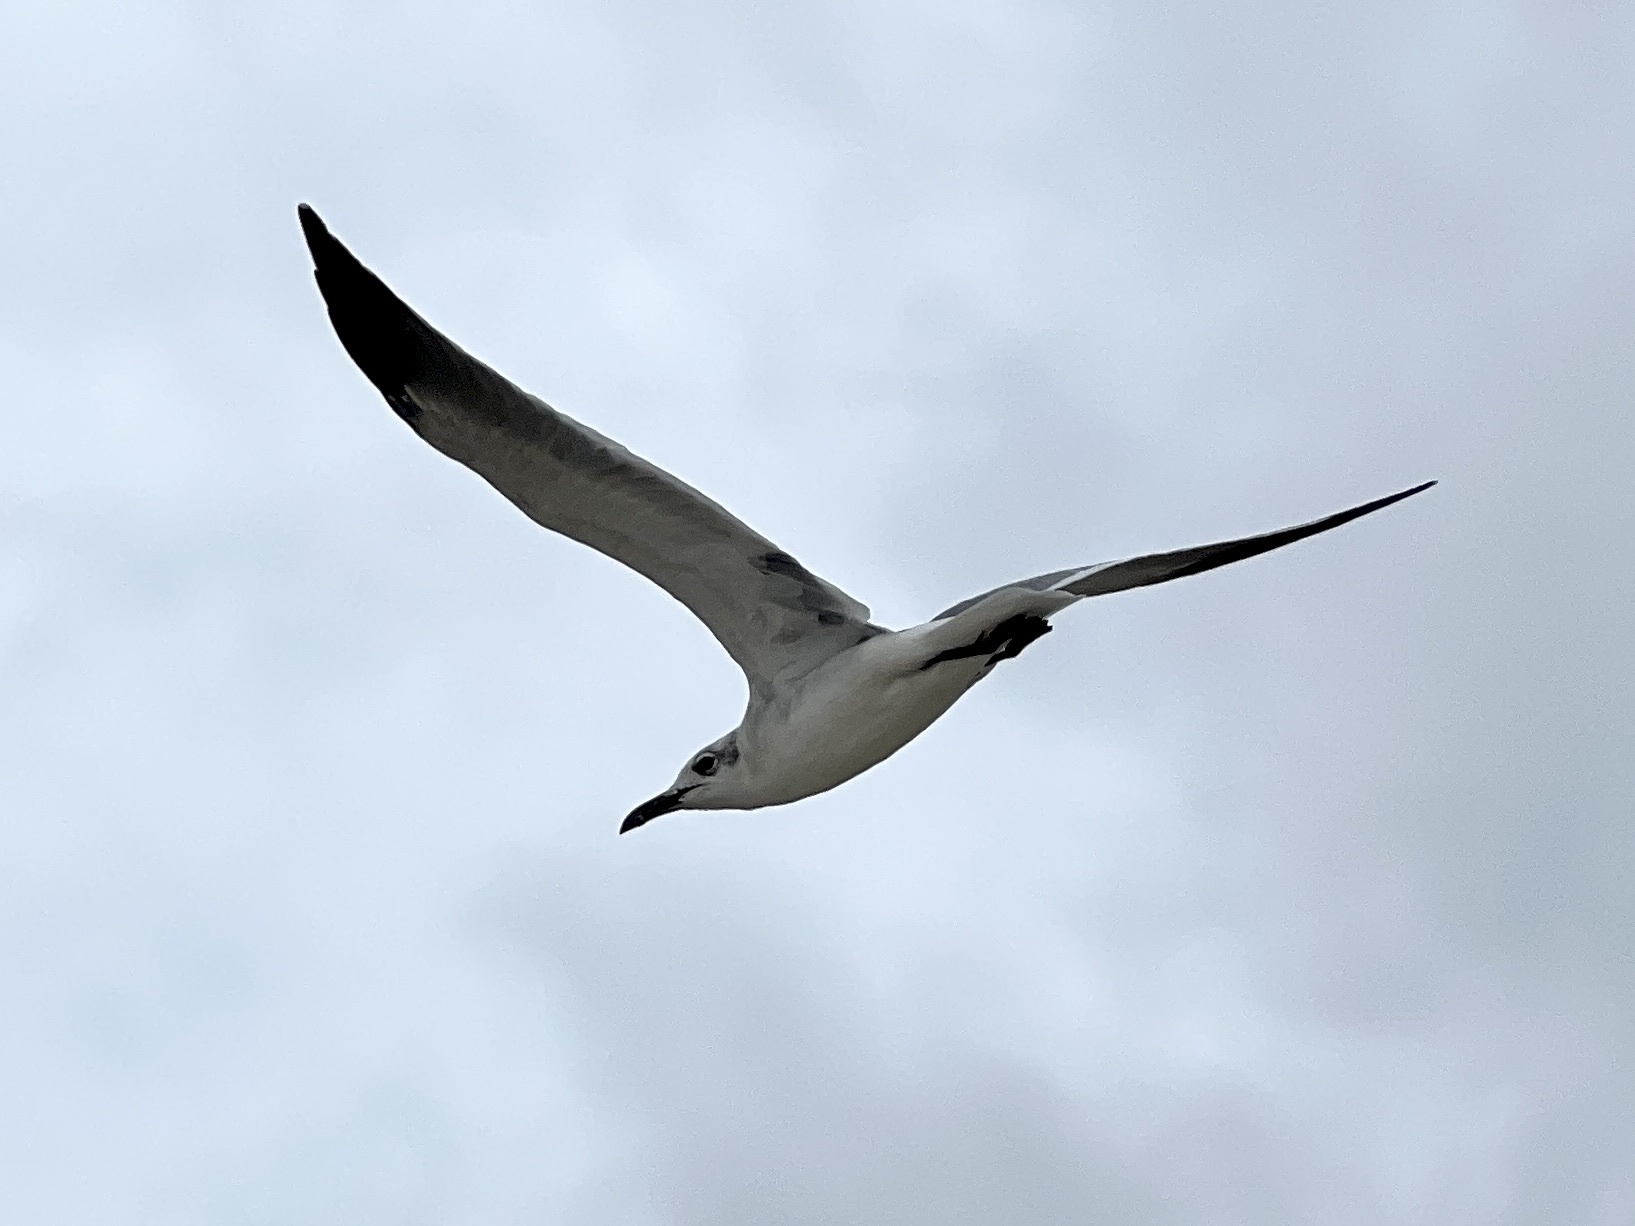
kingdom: Animalia
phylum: Chordata
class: Aves
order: Charadriiformes
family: Laridae
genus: Leucophaeus
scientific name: Leucophaeus atricilla
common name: Laughing gull
